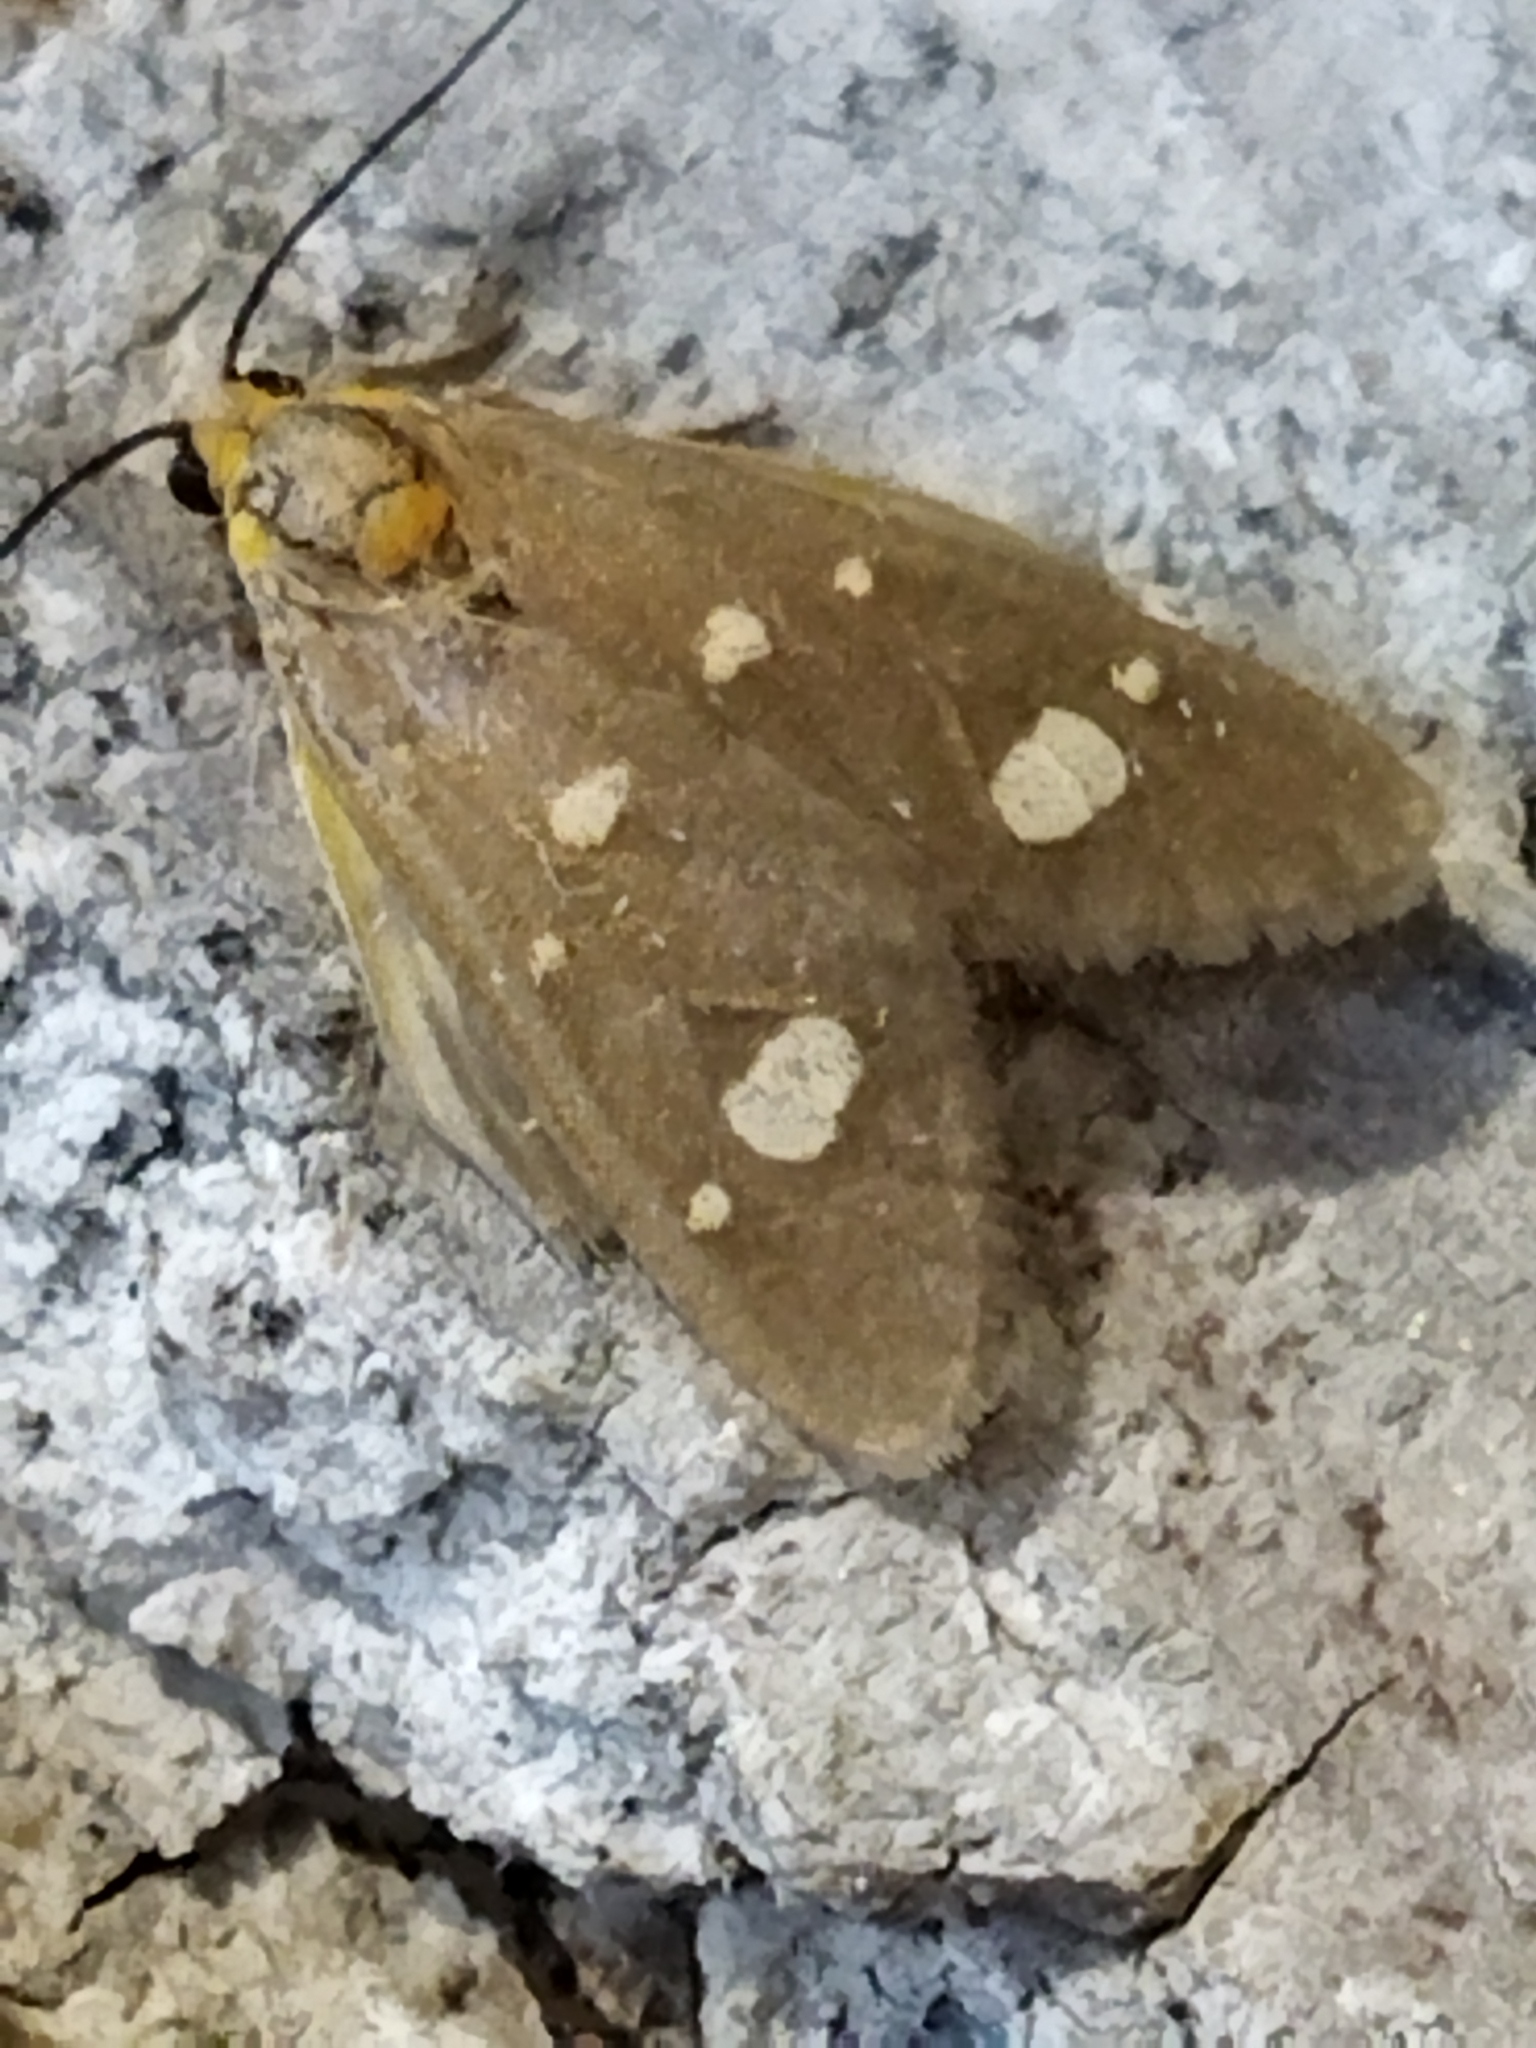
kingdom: Animalia
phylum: Arthropoda
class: Insecta
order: Lepidoptera
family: Erebidae
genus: Dysauxes
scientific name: Dysauxes punctata
